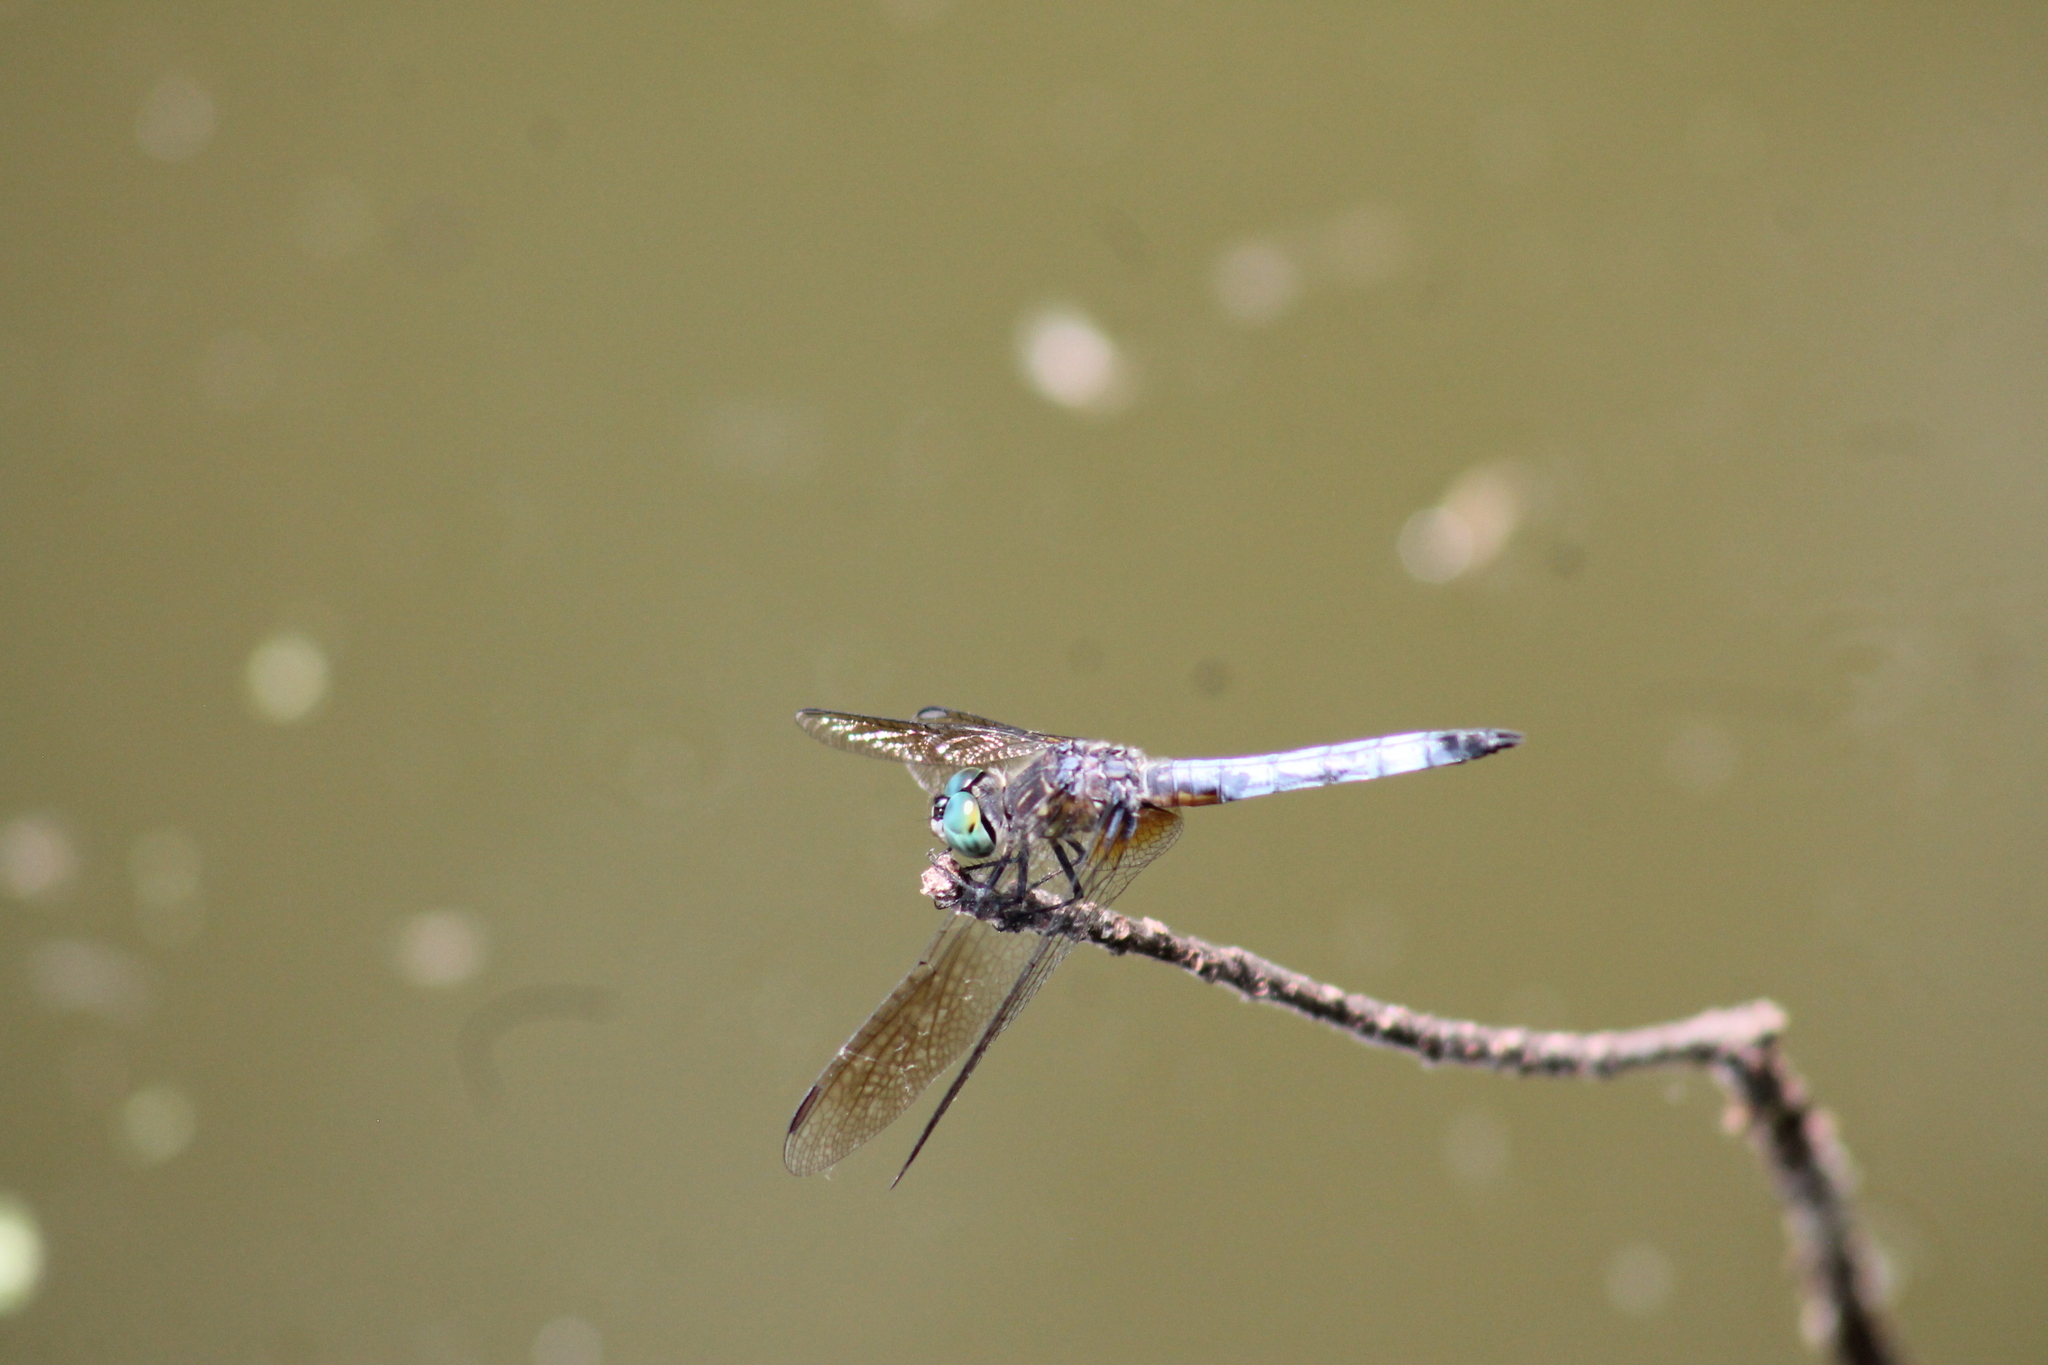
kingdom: Animalia
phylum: Arthropoda
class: Insecta
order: Odonata
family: Libellulidae
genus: Pachydiplax
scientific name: Pachydiplax longipennis
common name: Blue dasher
